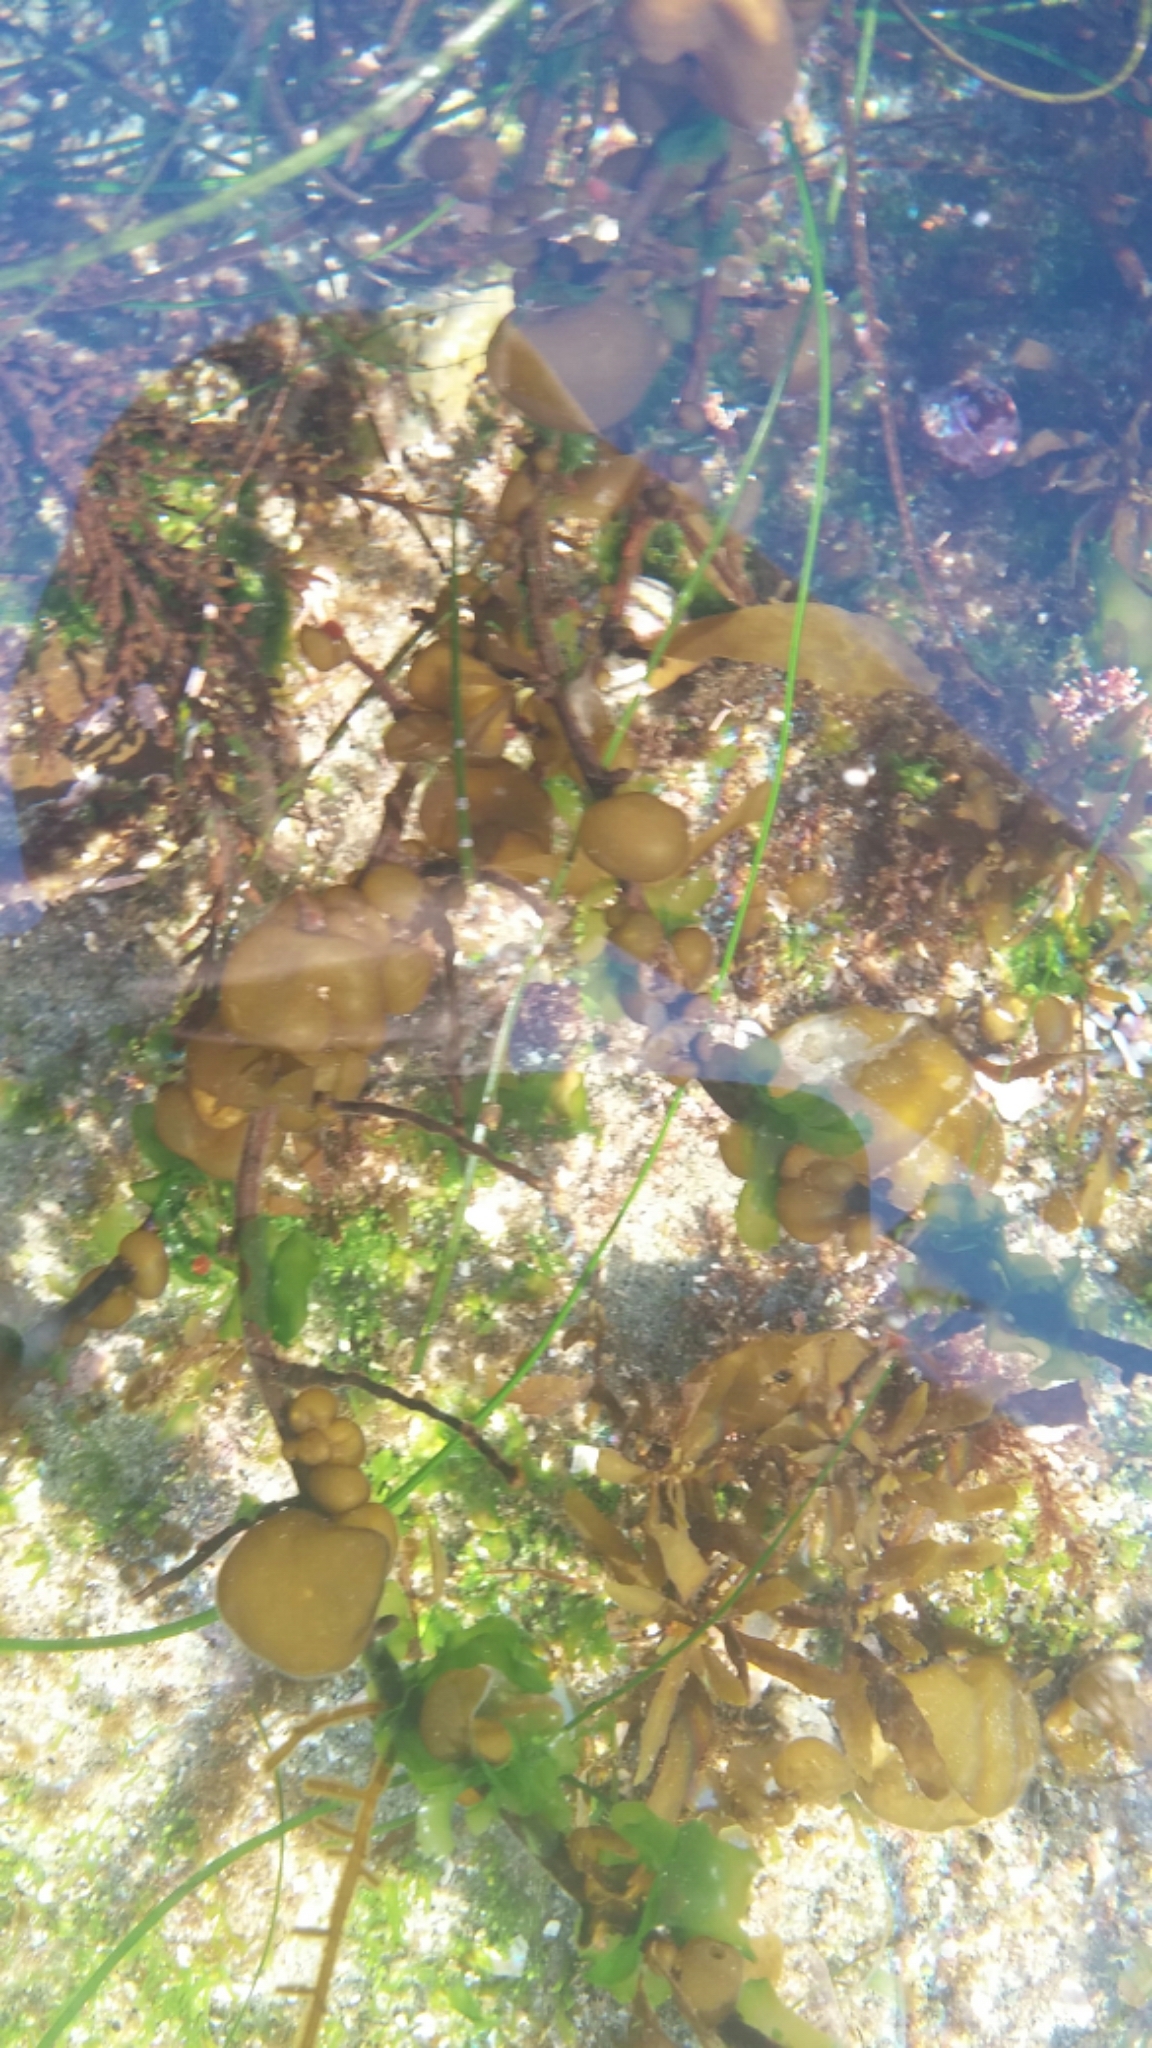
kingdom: Chromista
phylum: Ochrophyta
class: Phaeophyceae
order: Scytosiphonales
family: Scytosiphonaceae
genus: Colpomenia
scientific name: Colpomenia sinuosa
